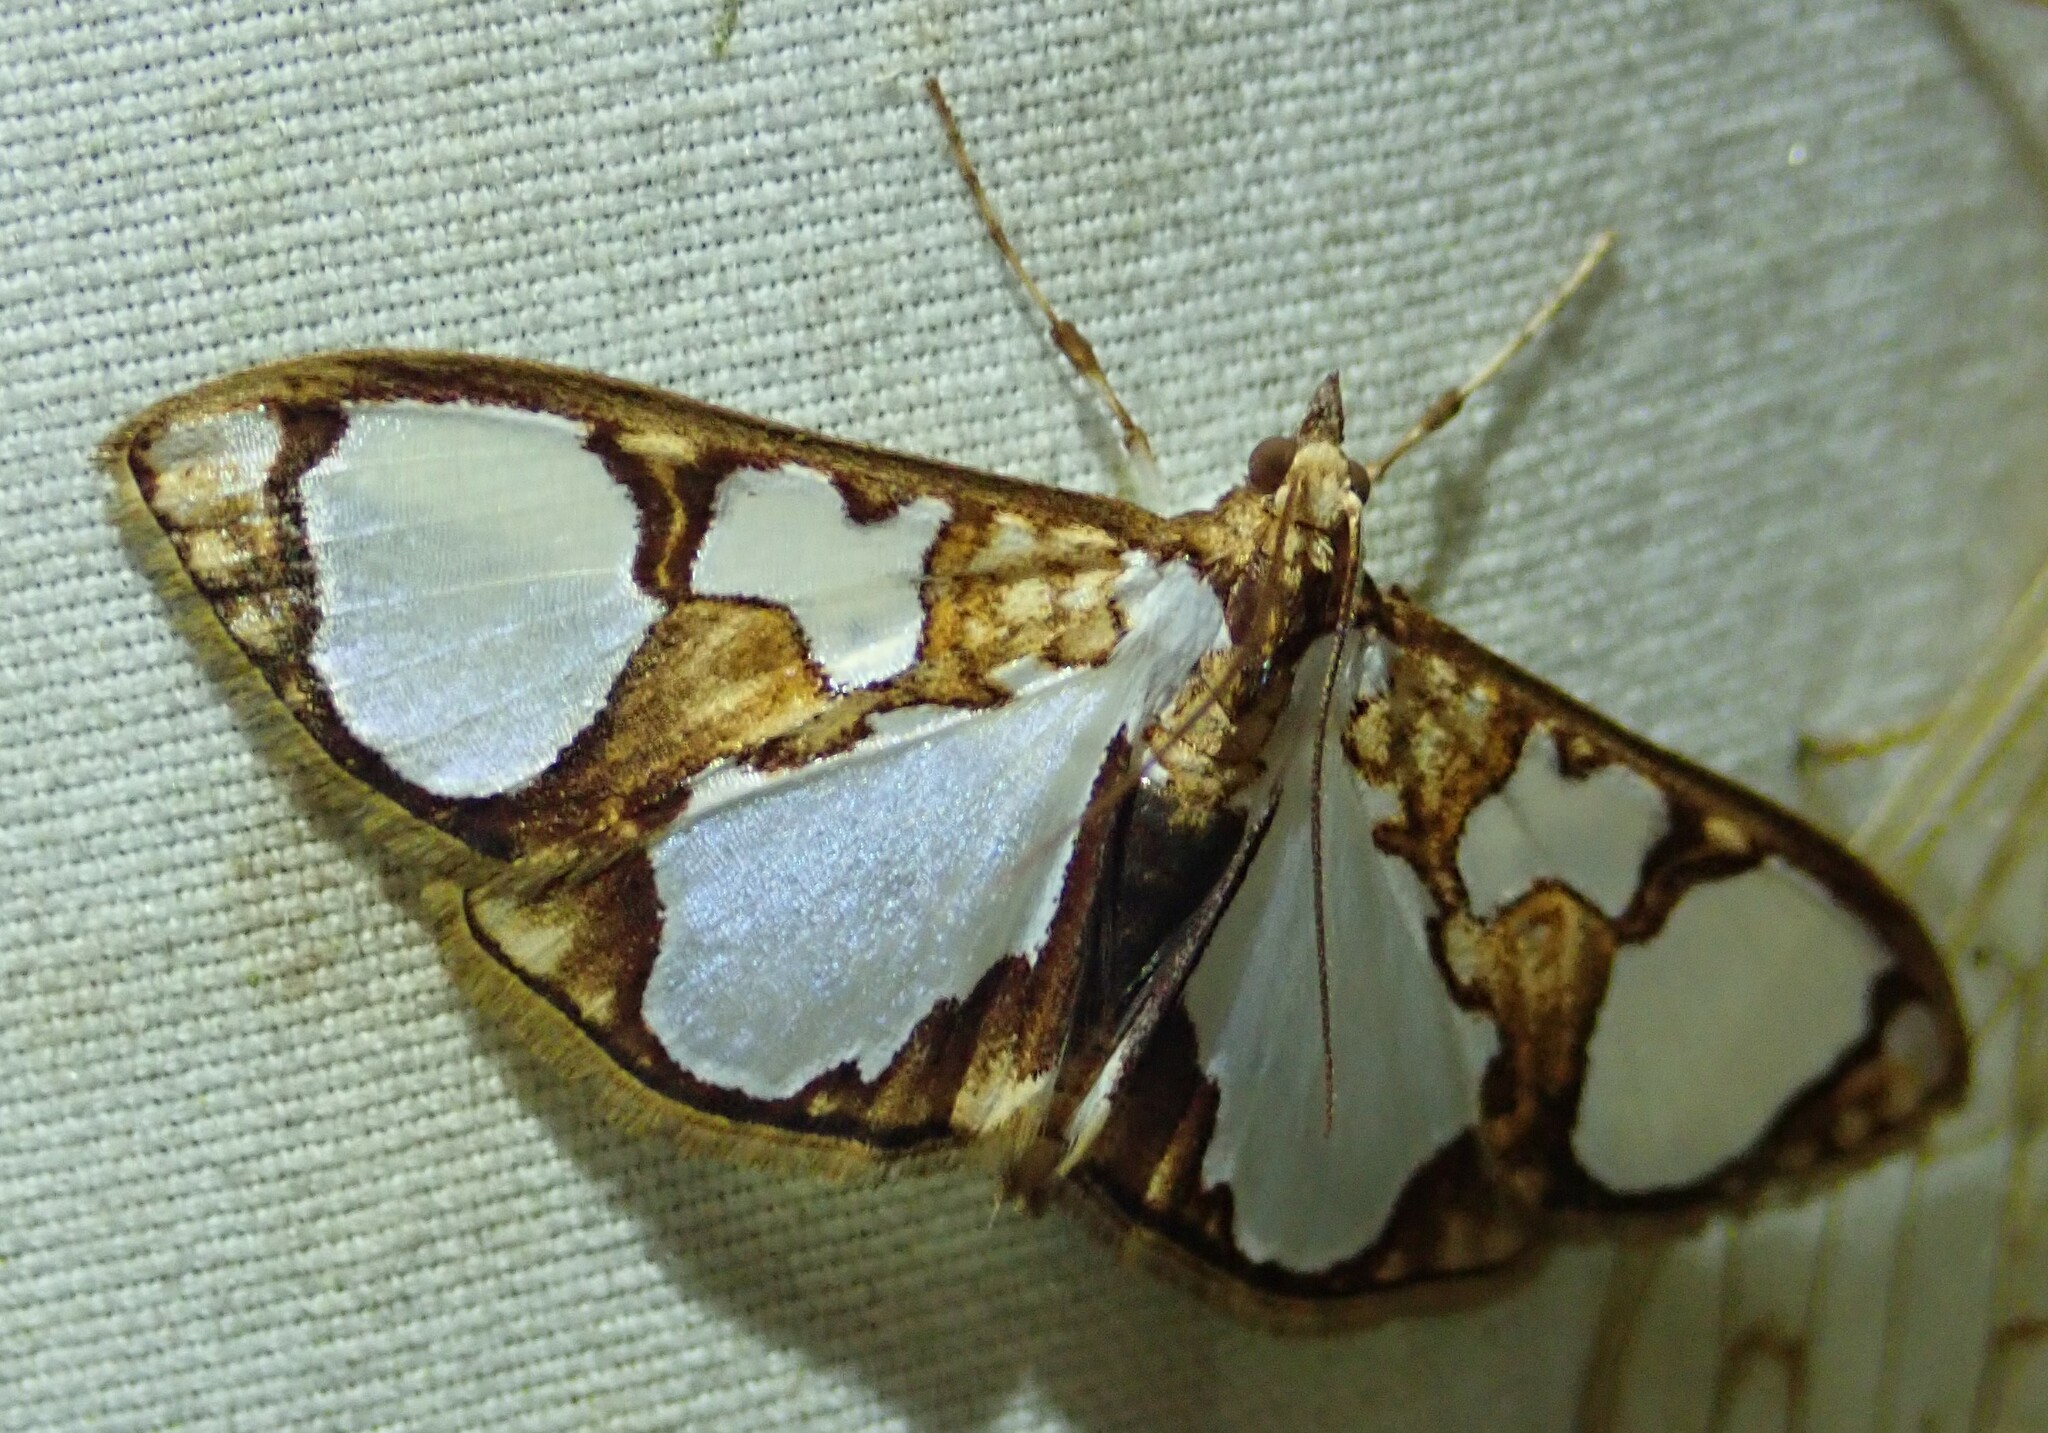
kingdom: Animalia
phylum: Arthropoda
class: Insecta
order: Lepidoptera
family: Crambidae
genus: Glyphodes
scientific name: Glyphodes grandisalis
